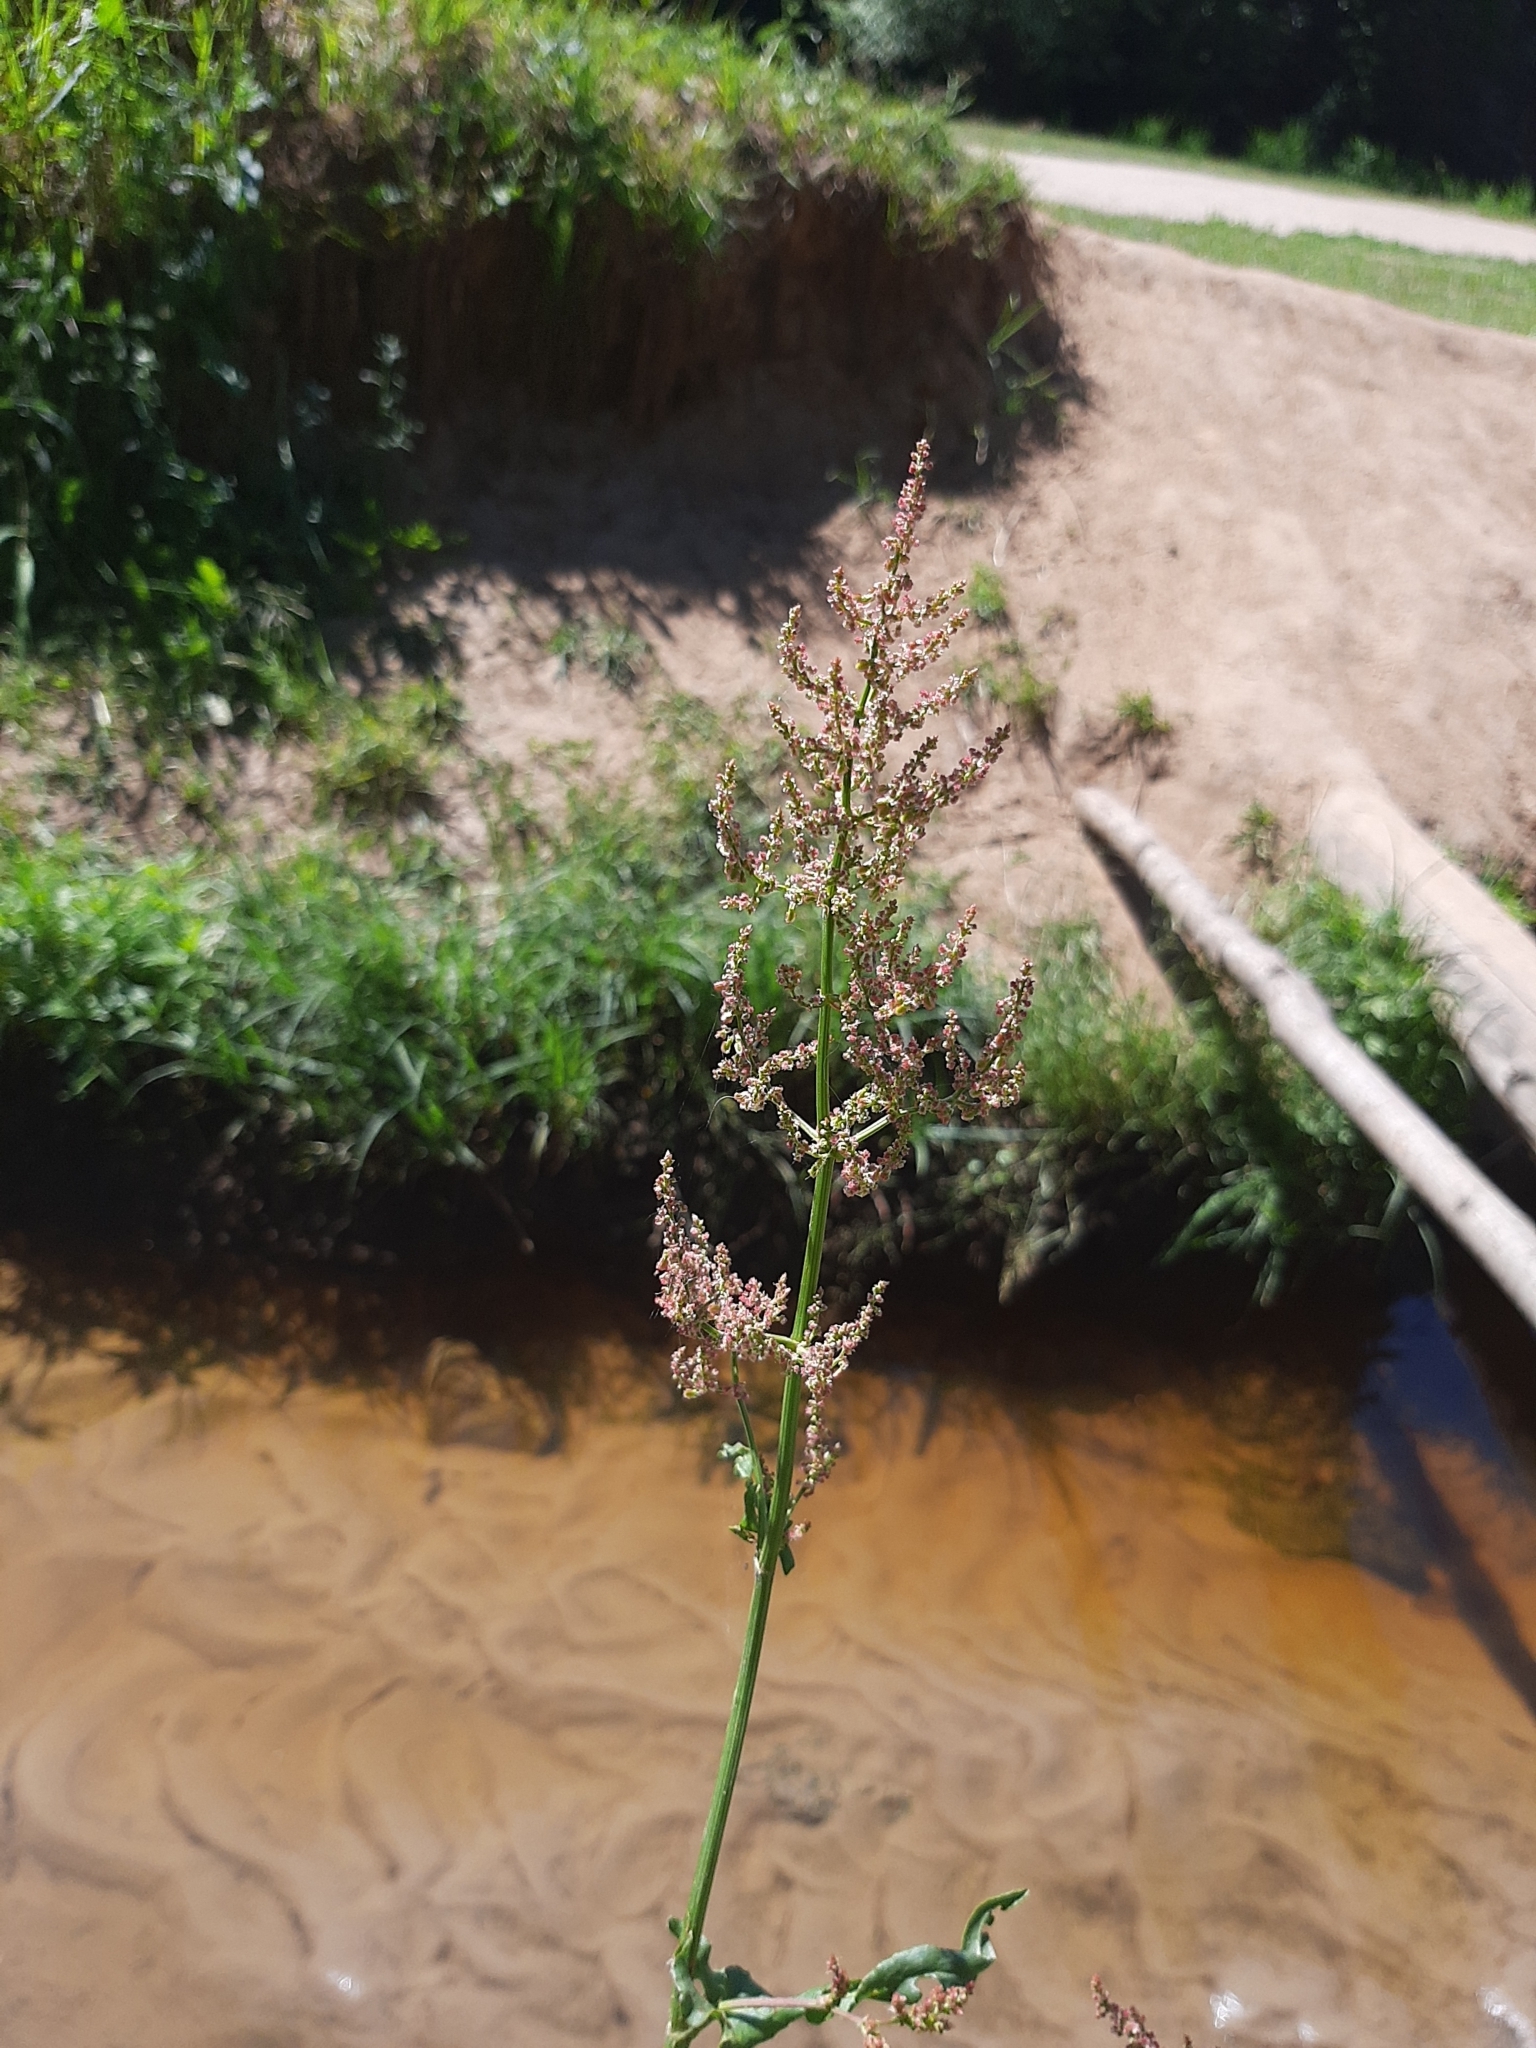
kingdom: Plantae
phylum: Tracheophyta
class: Magnoliopsida
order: Caryophyllales
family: Polygonaceae
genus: Rumex
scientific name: Rumex thyrsiflorus
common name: Garden sorrel
